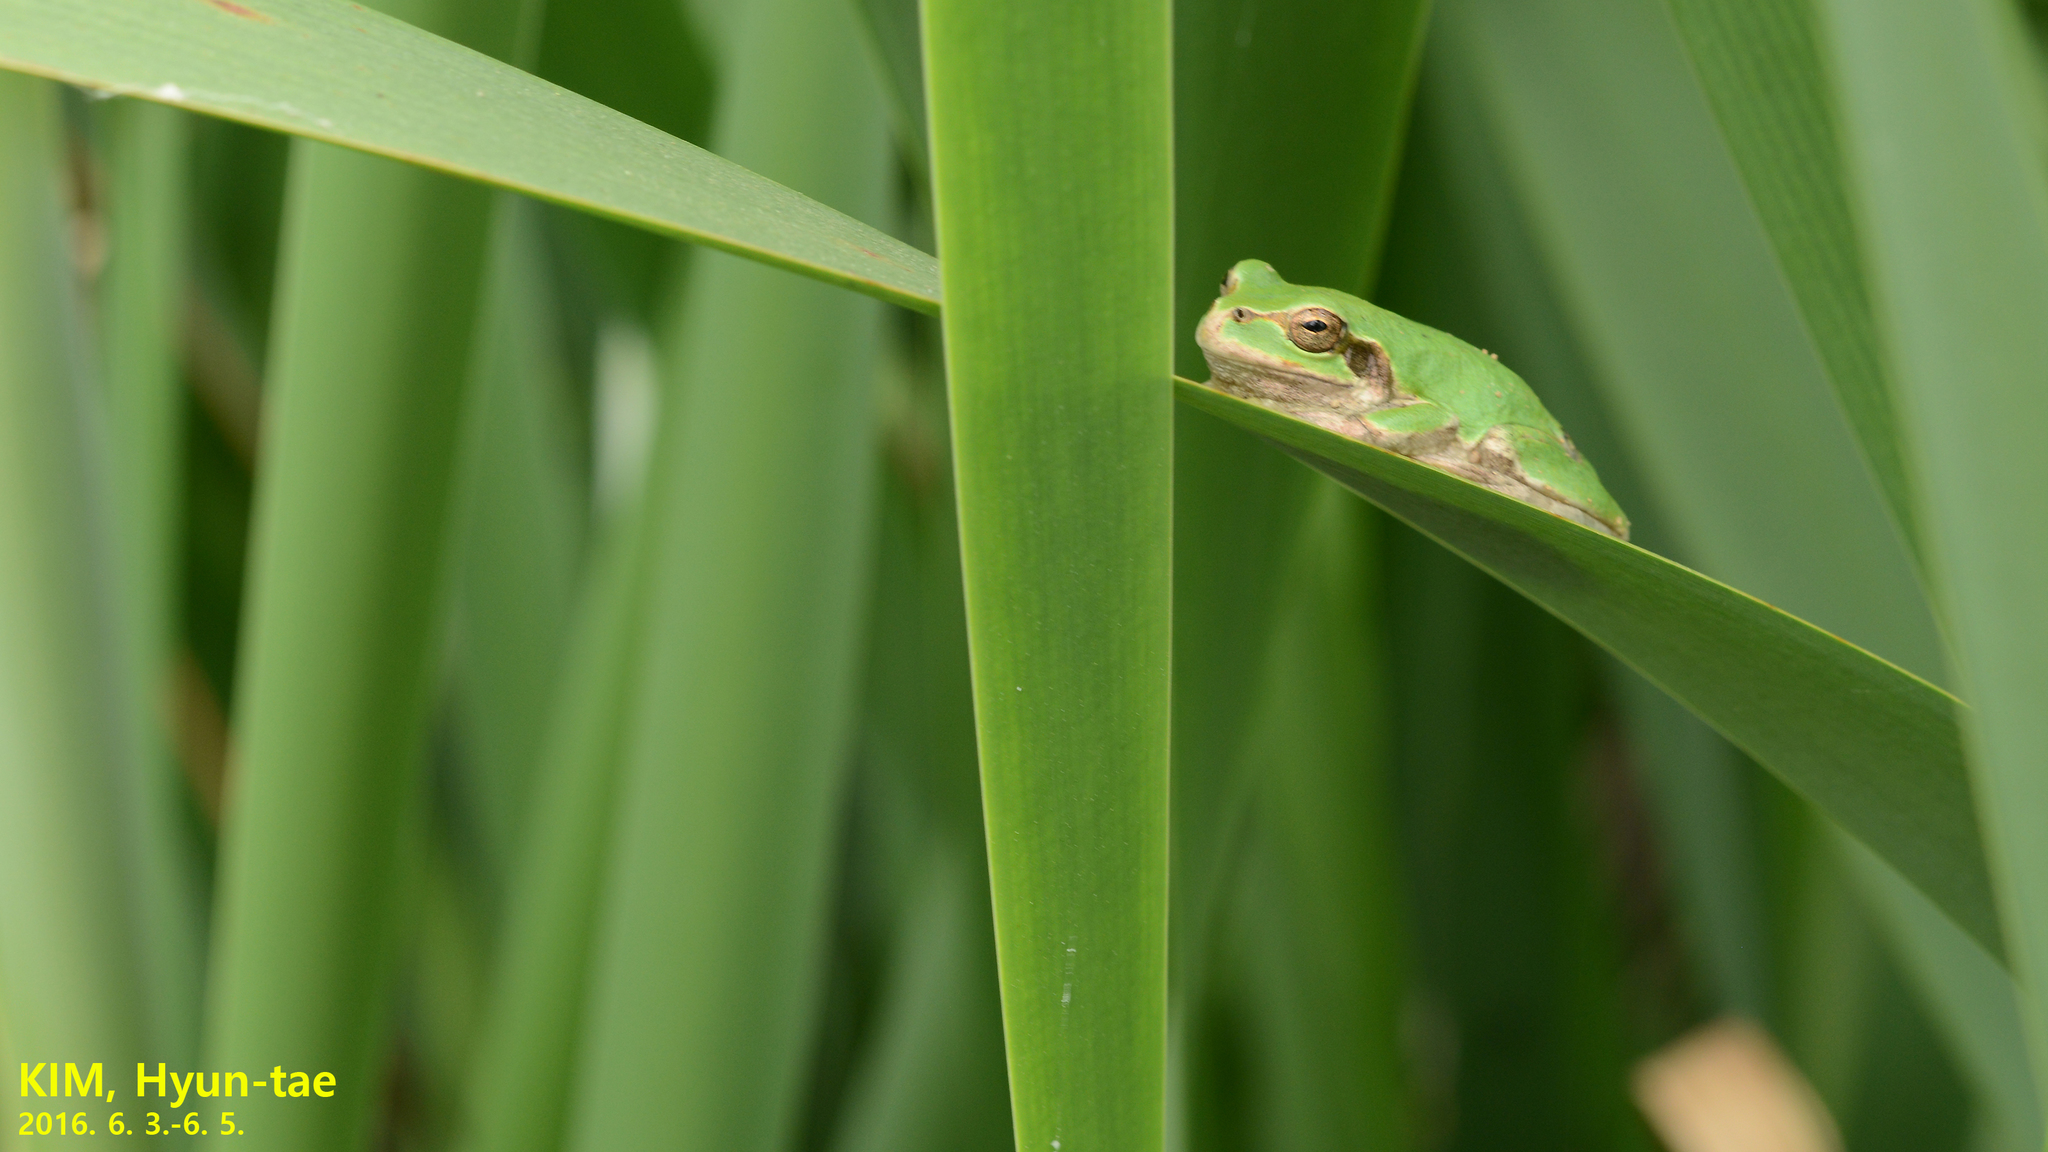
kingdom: Animalia
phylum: Chordata
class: Amphibia
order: Anura
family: Hylidae
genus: Dryophytes
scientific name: Dryophytes japonicus
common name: Japanese treefrog
